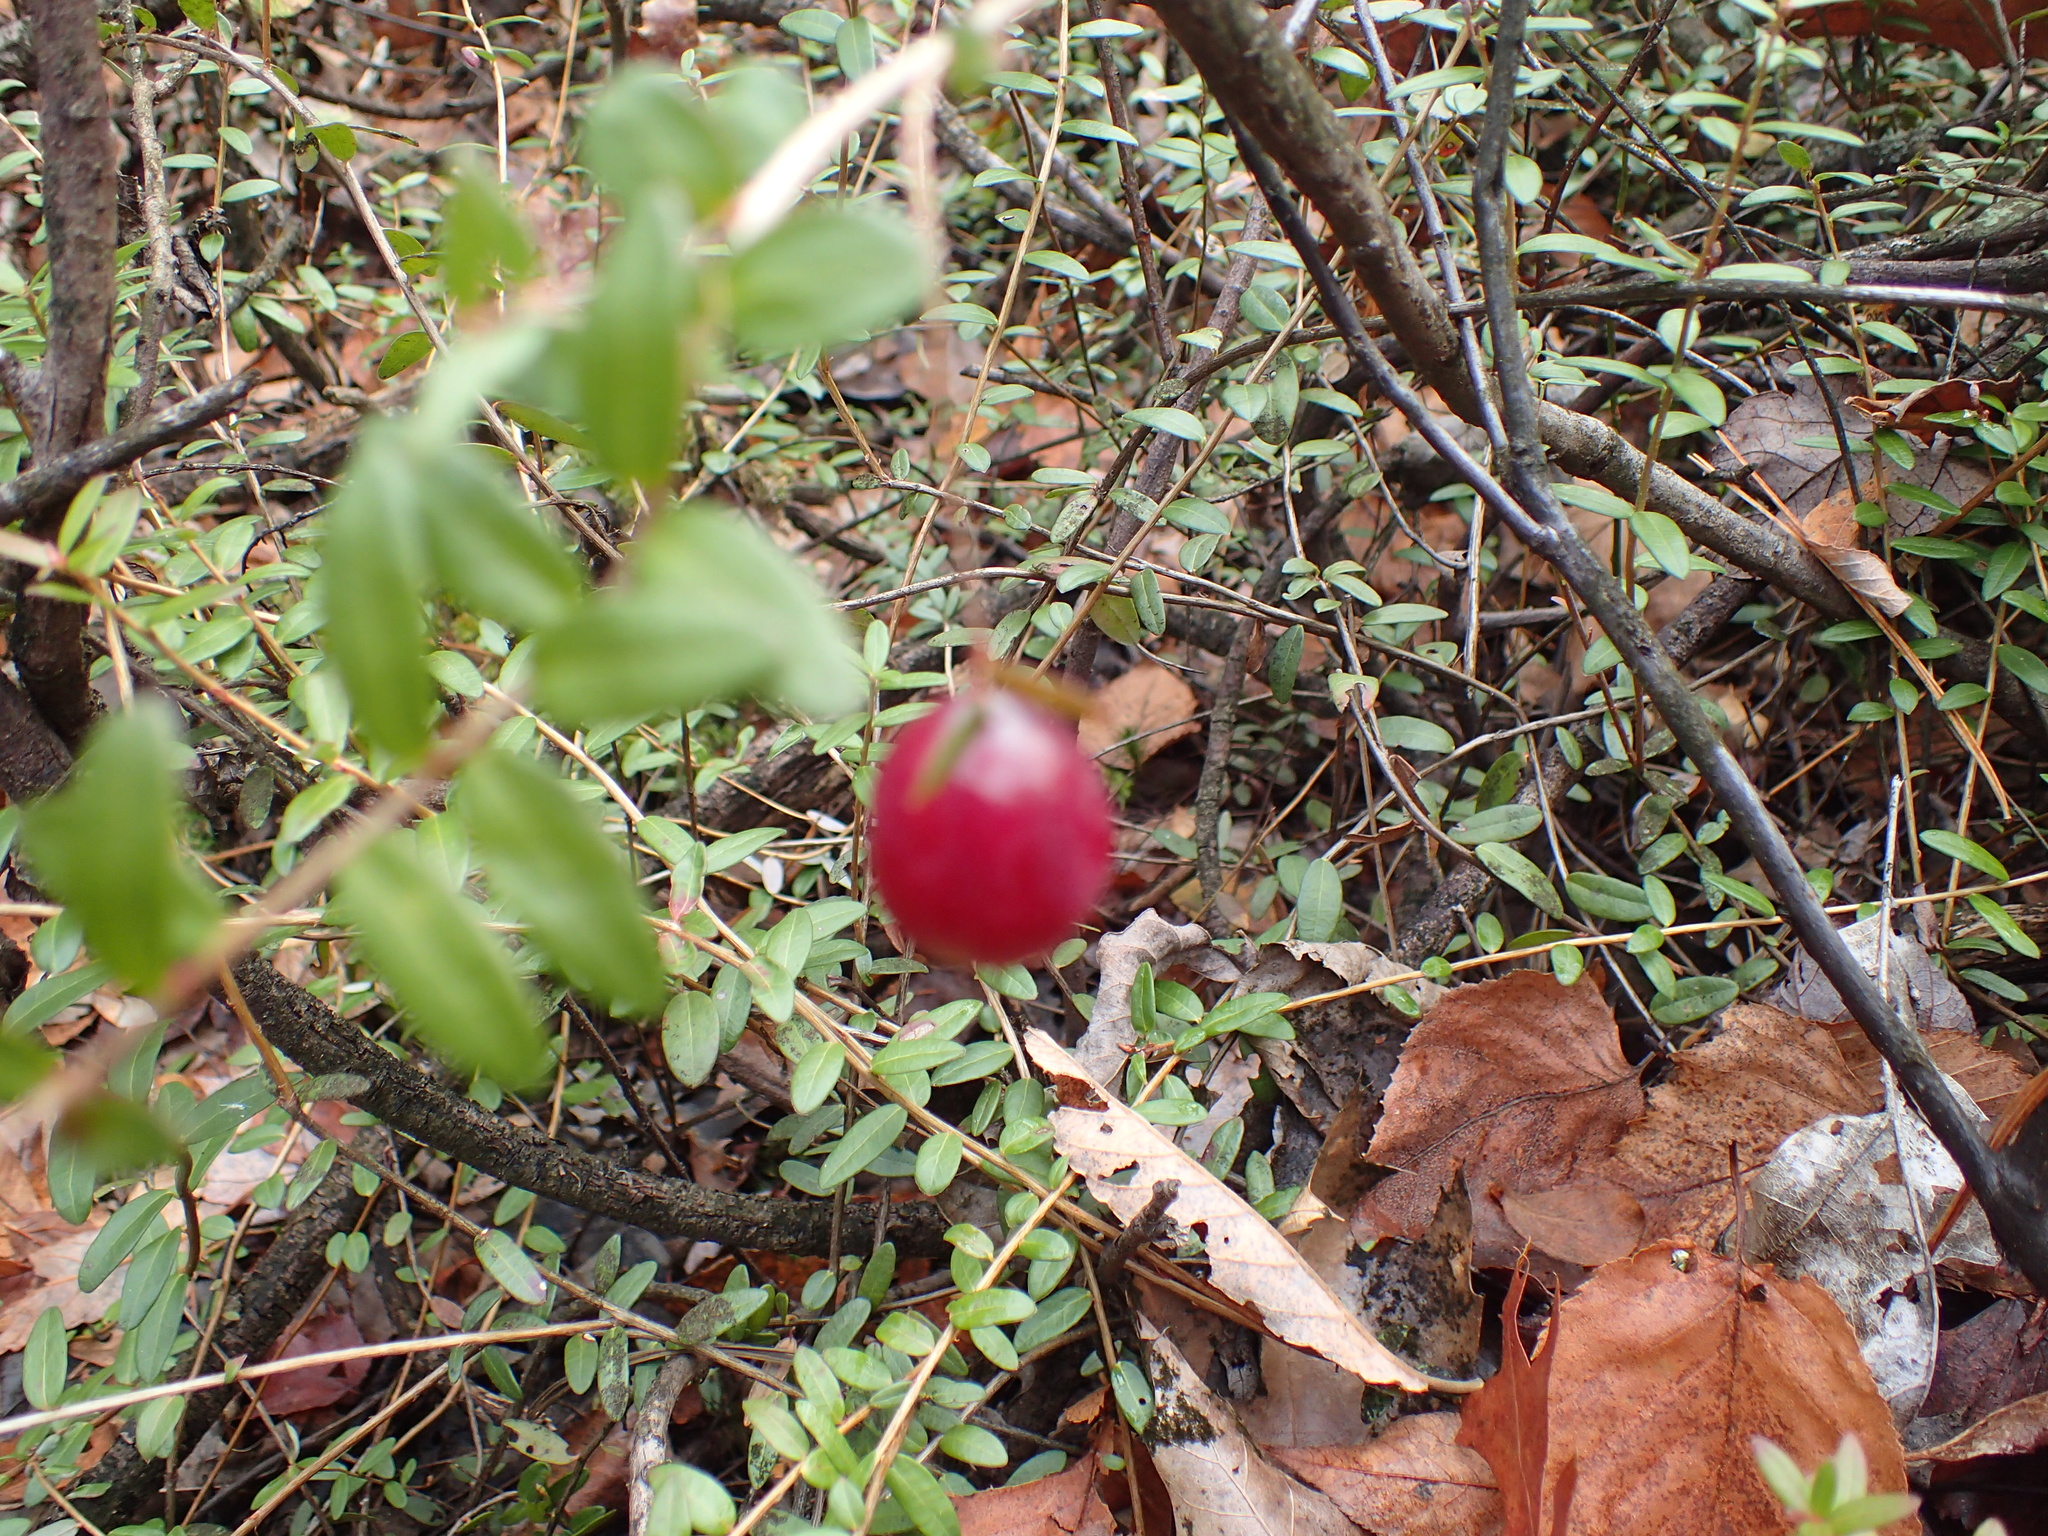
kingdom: Plantae
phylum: Tracheophyta
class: Magnoliopsida
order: Ericales
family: Ericaceae
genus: Vaccinium
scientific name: Vaccinium macrocarpon
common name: American cranberry
